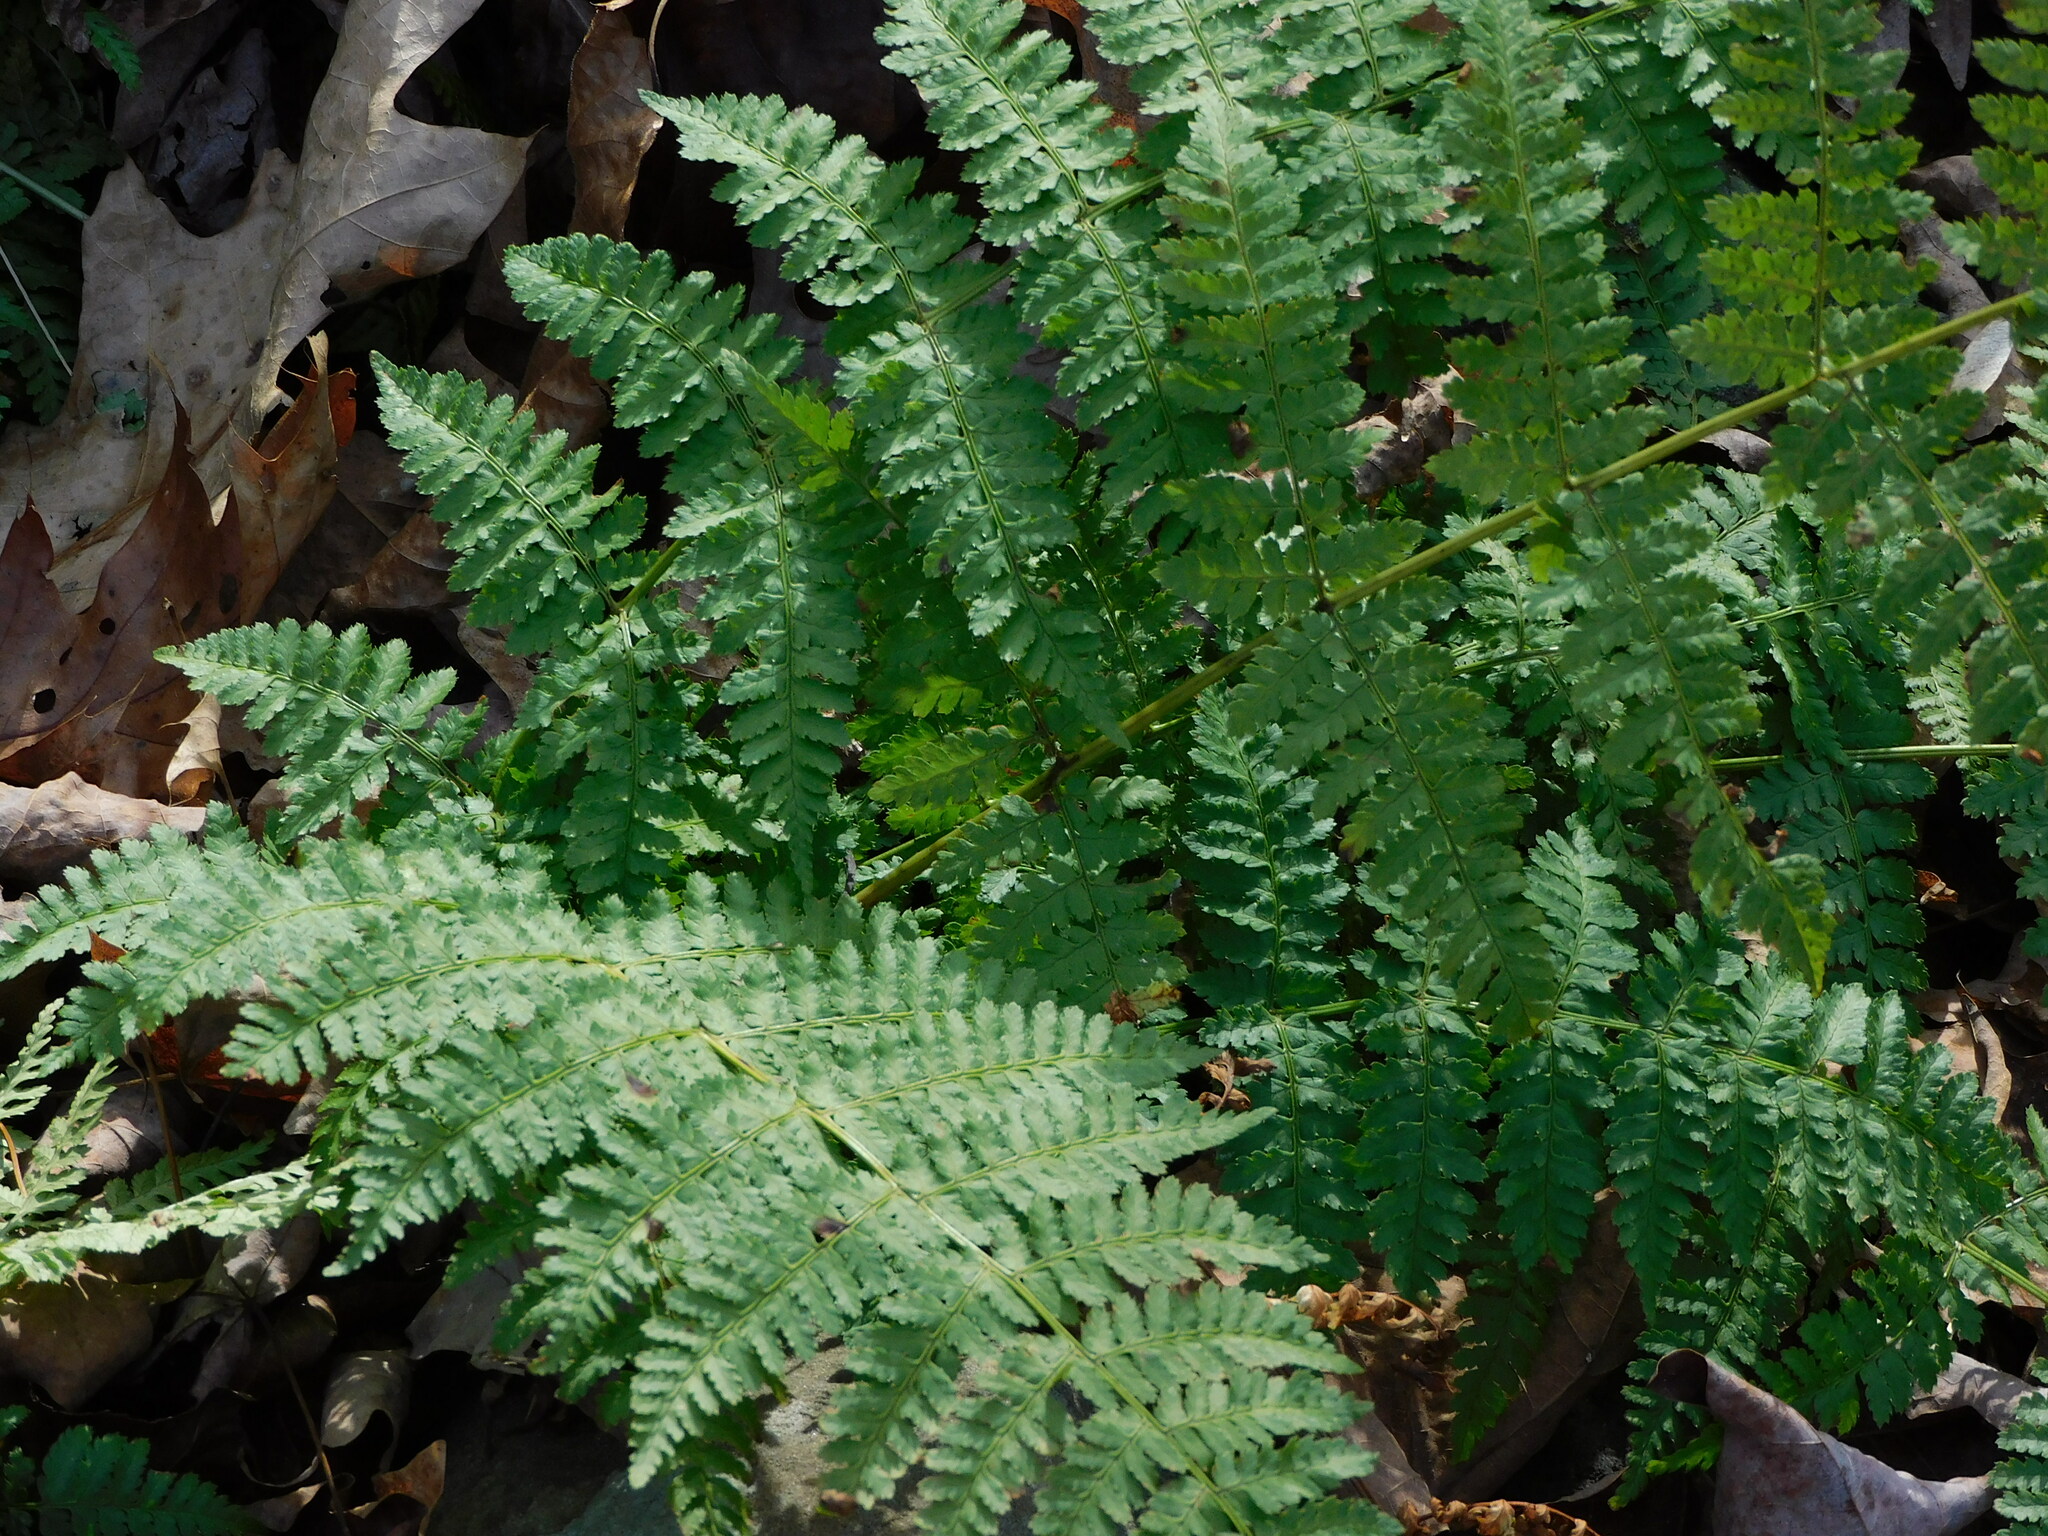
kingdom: Plantae
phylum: Tracheophyta
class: Polypodiopsida
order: Polypodiales
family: Dryopteridaceae
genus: Dryopteris
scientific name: Dryopteris intermedia
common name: Evergreen wood fern
